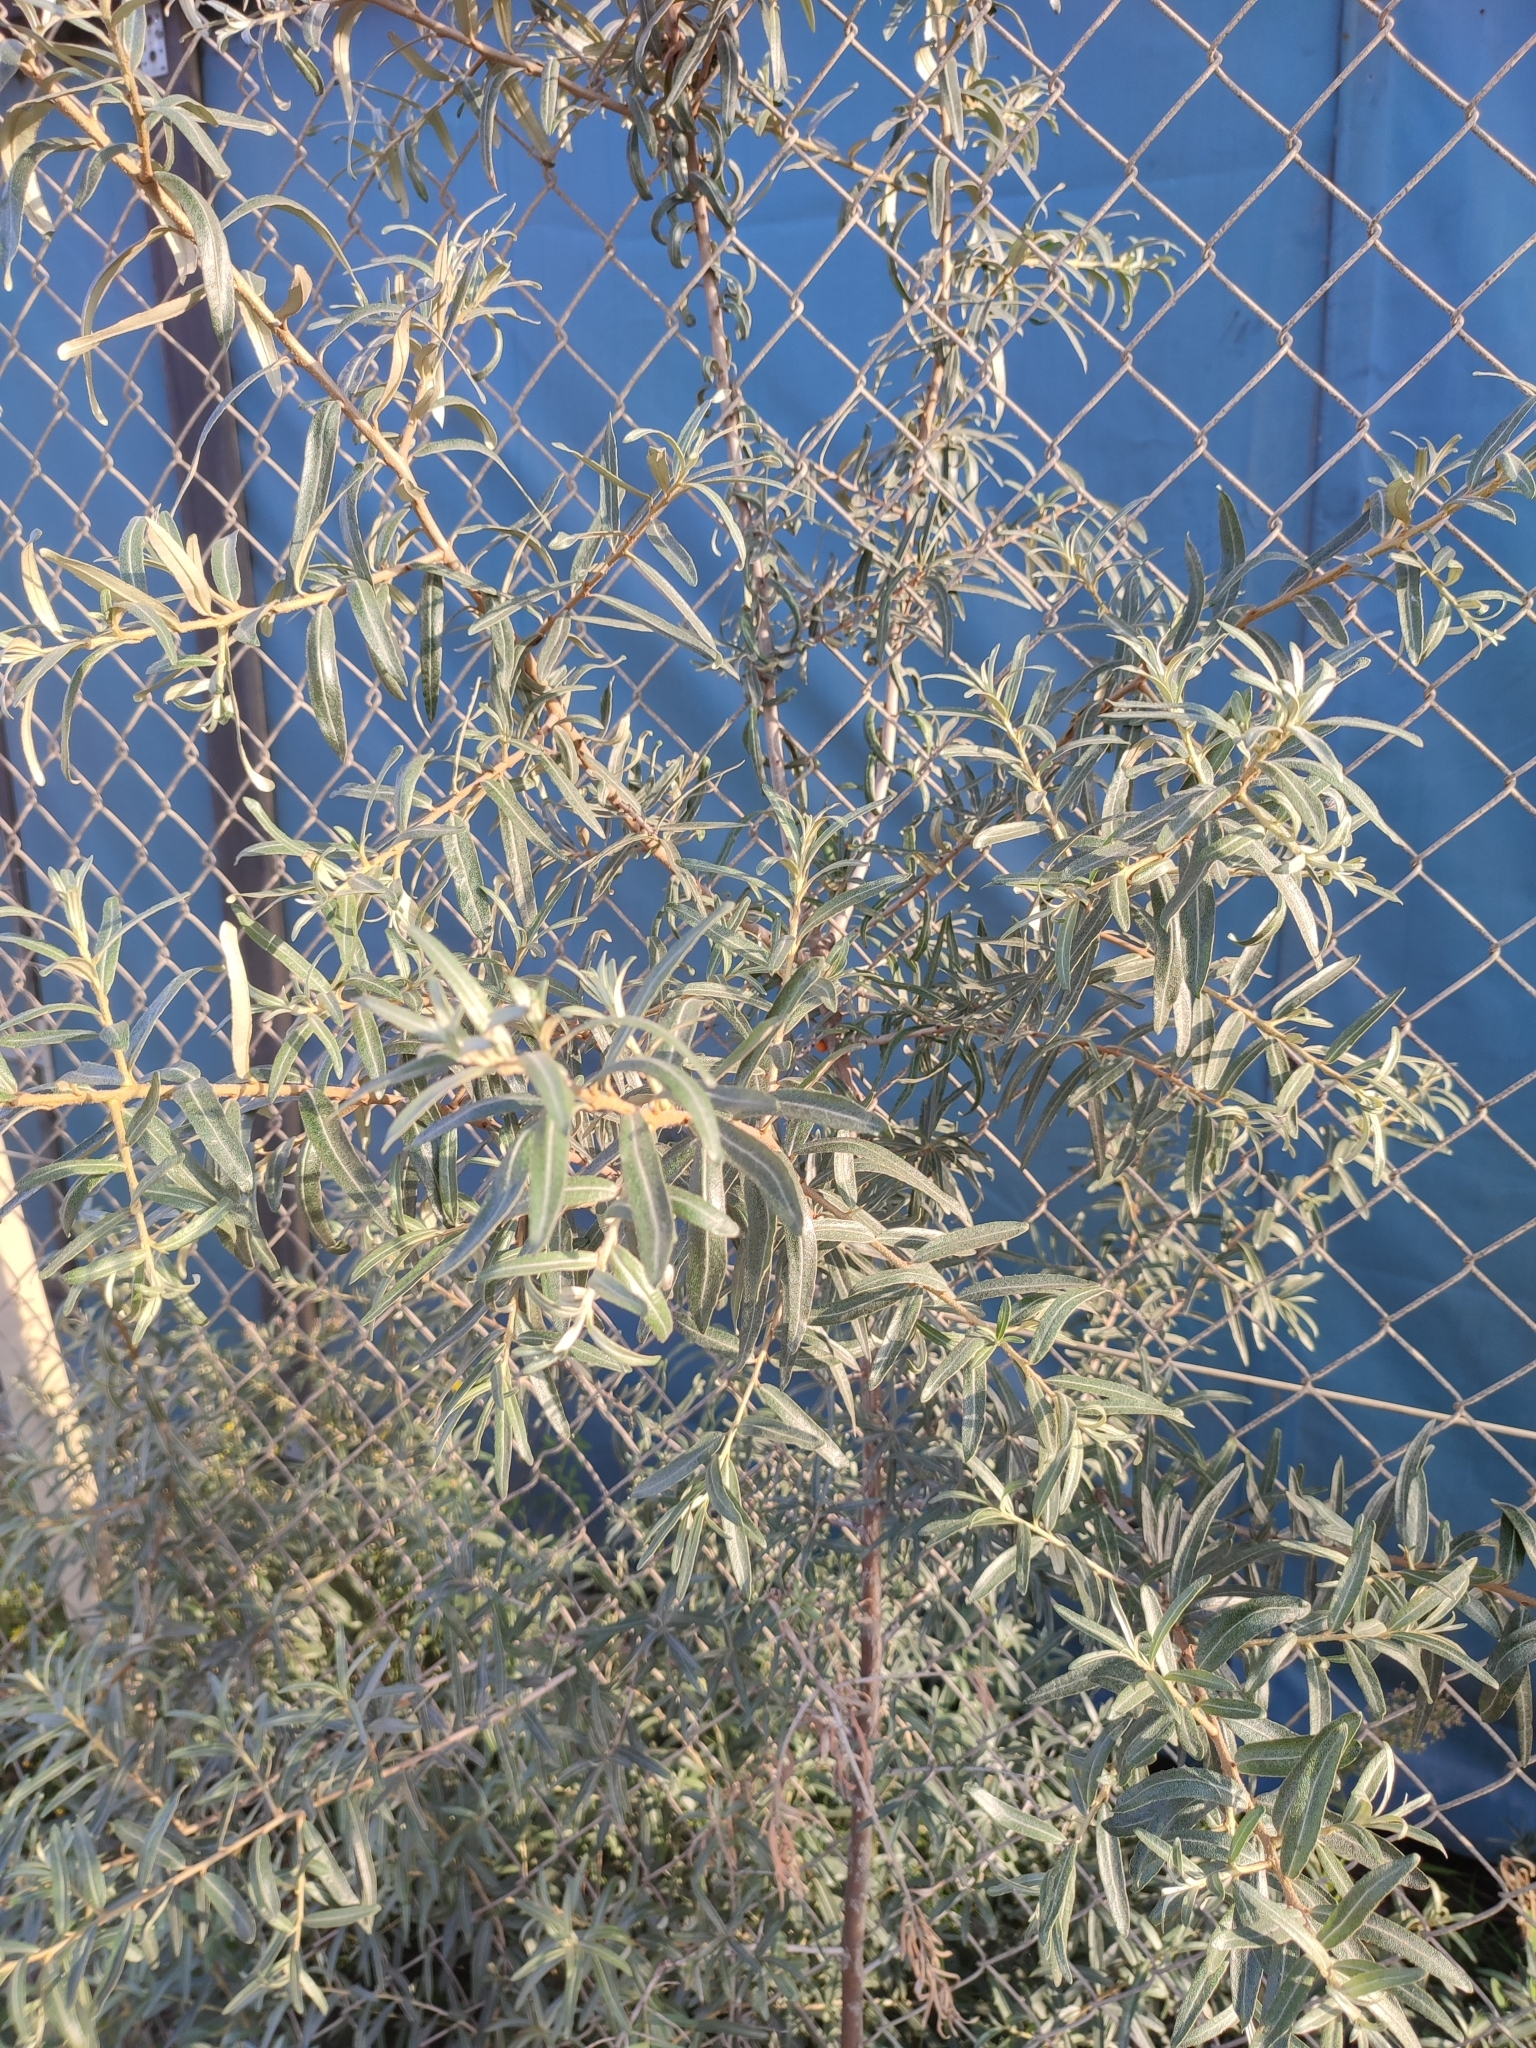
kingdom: Plantae
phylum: Tracheophyta
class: Magnoliopsida
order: Rosales
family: Elaeagnaceae
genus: Hippophae
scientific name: Hippophae rhamnoides
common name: Sea-buckthorn
